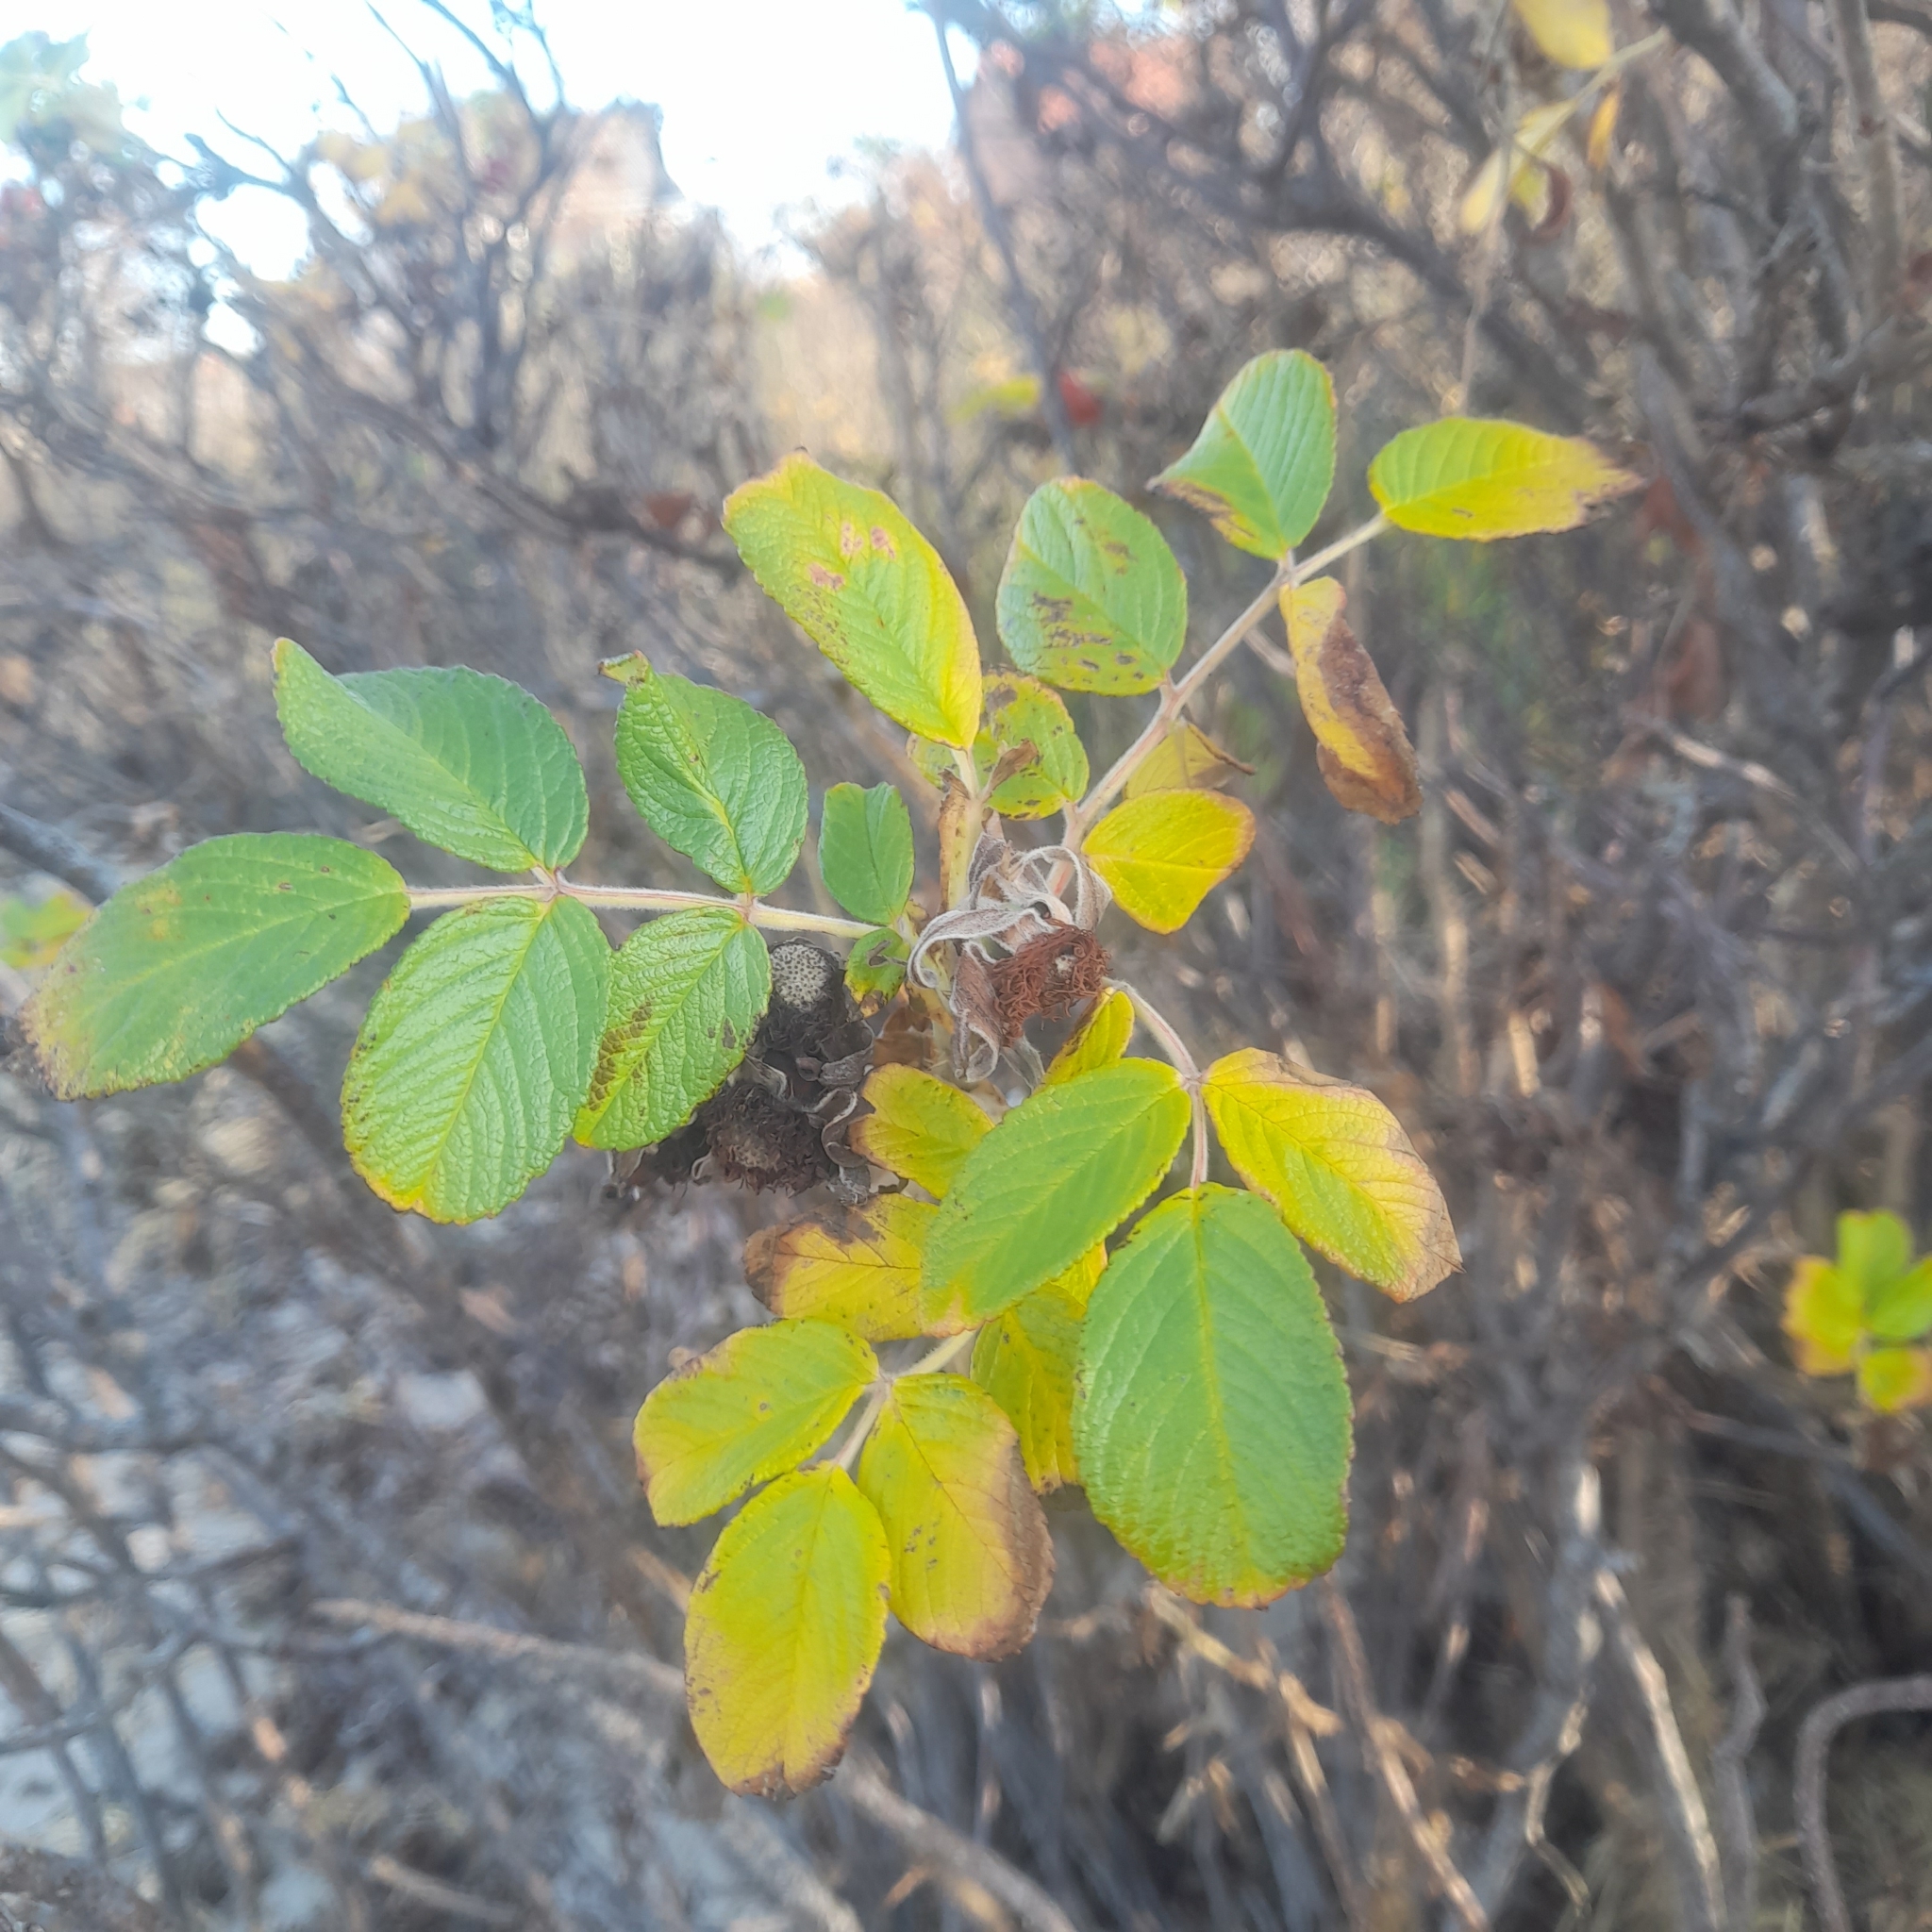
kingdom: Plantae
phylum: Tracheophyta
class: Magnoliopsida
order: Rosales
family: Rosaceae
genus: Rosa
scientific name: Rosa rugosa
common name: Japanese rose
